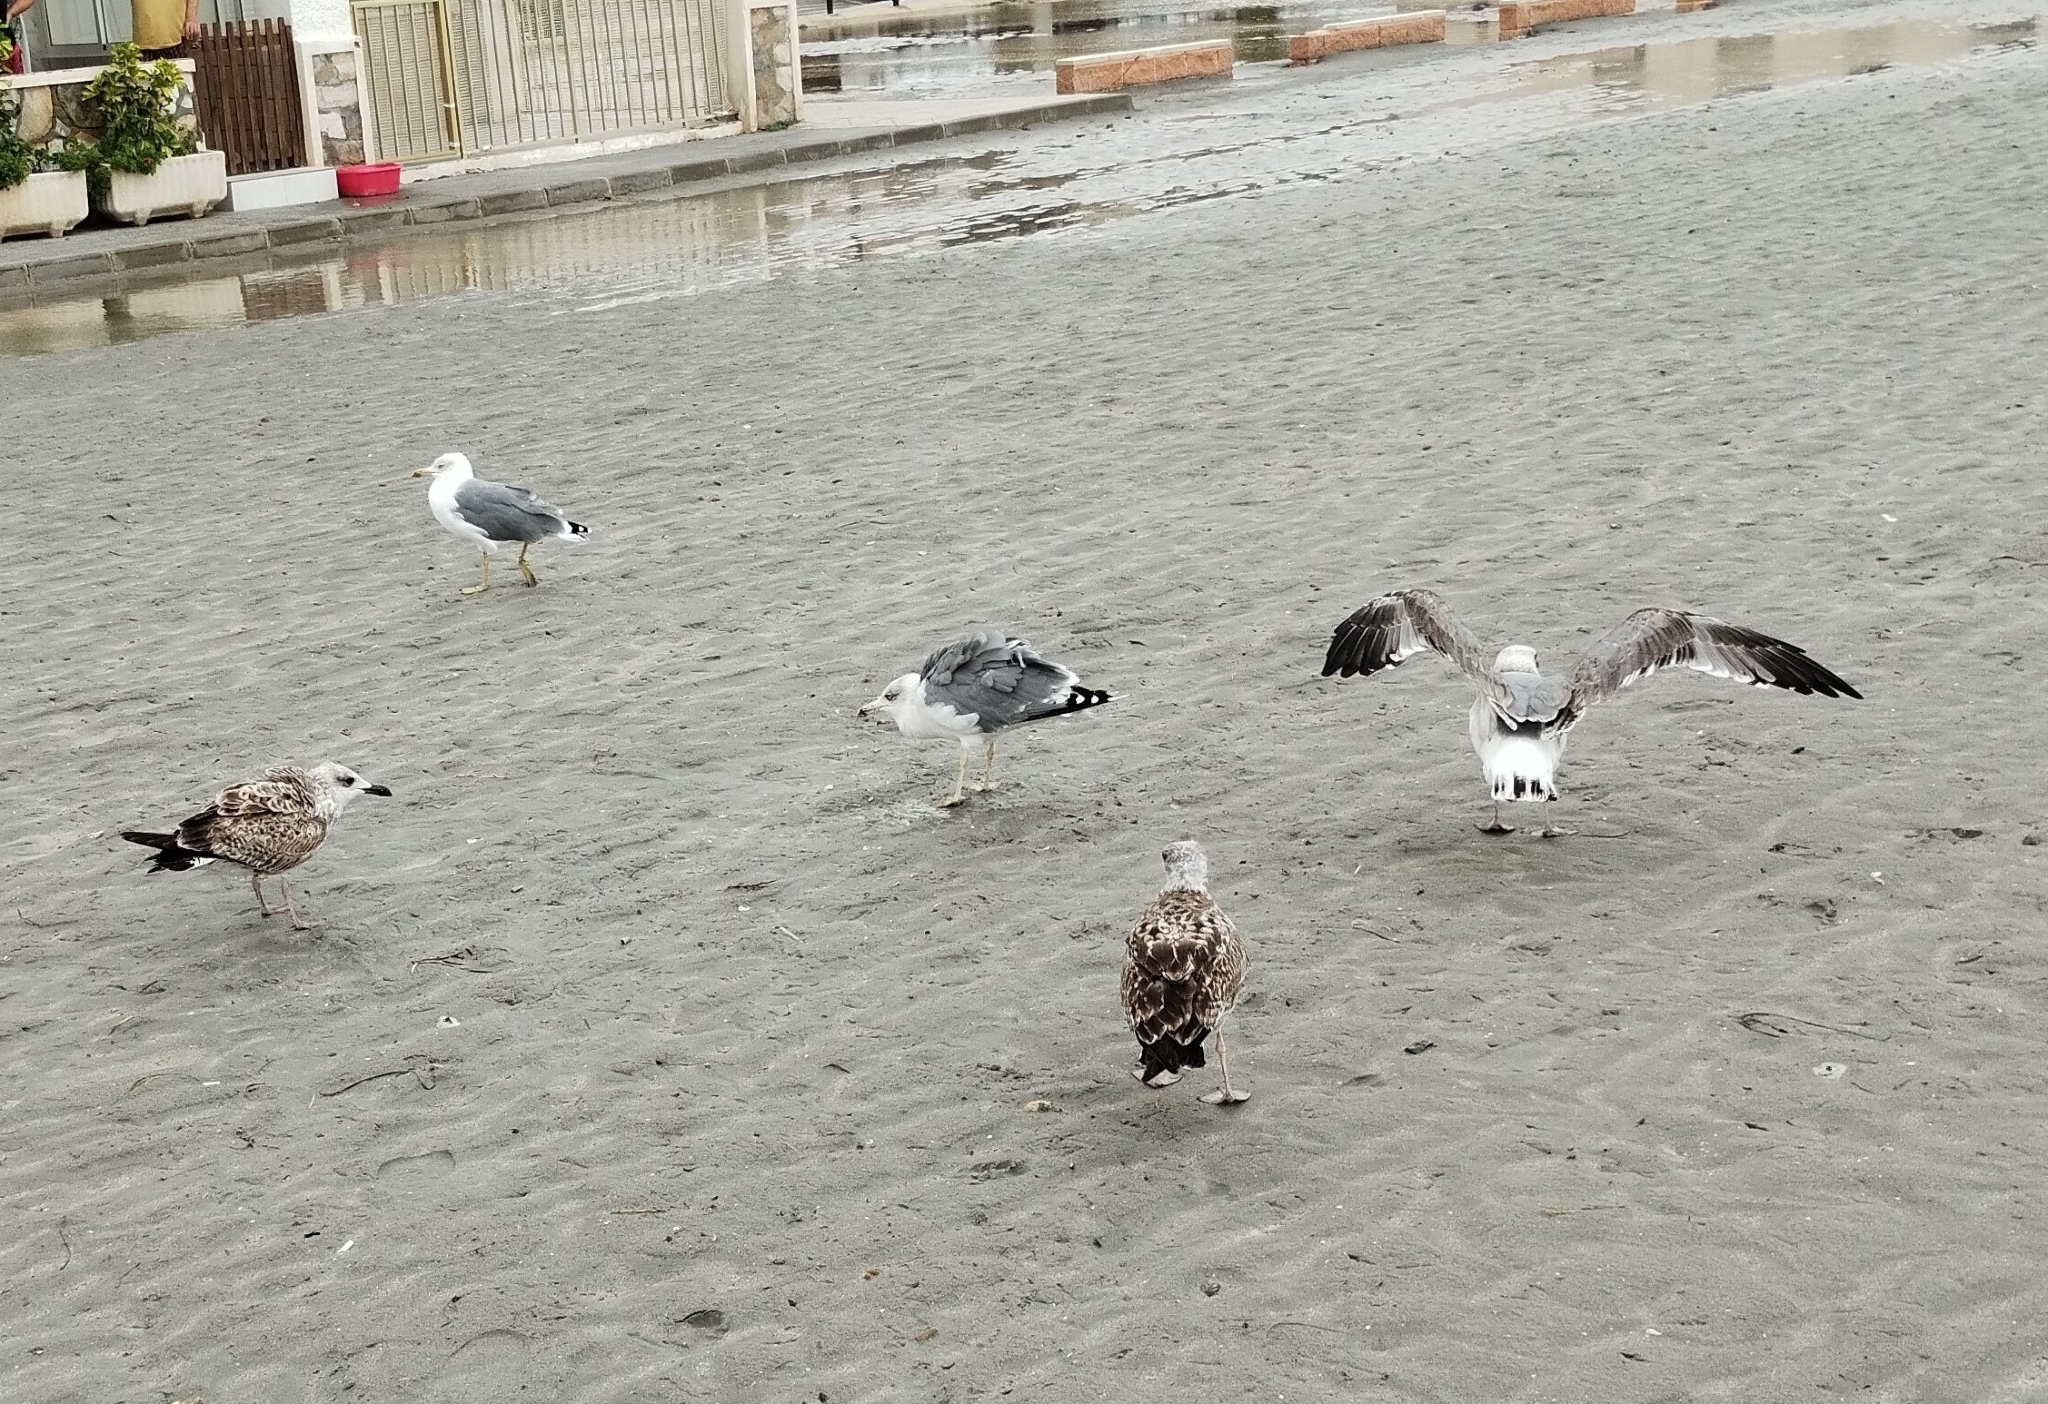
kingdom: Animalia
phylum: Chordata
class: Aves
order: Charadriiformes
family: Laridae
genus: Larus
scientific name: Larus michahellis
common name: Yellow-legged gull
